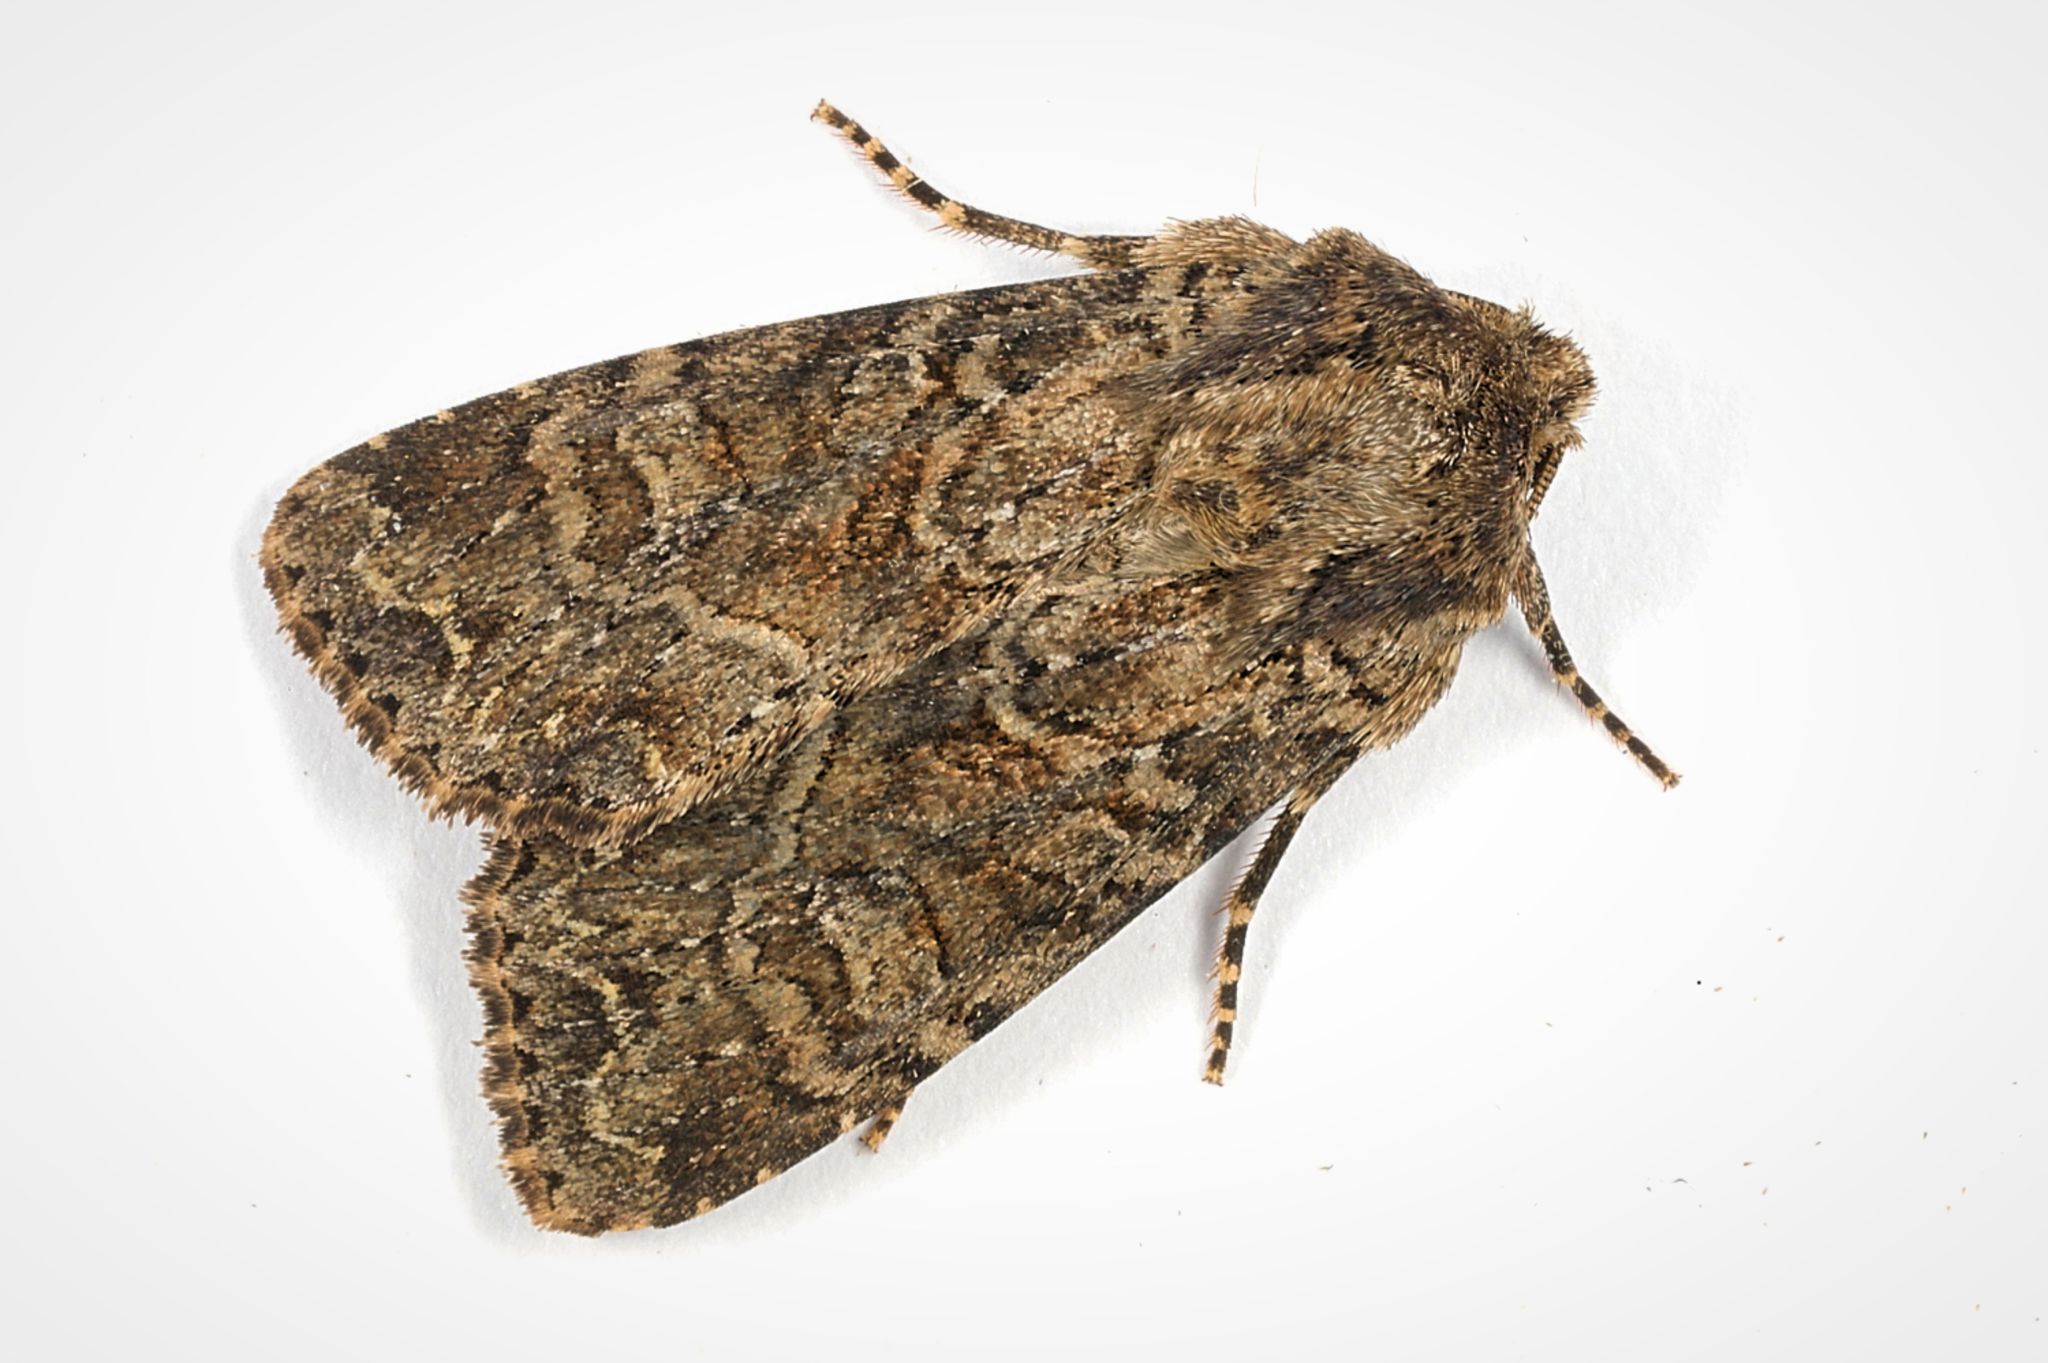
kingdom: Animalia
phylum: Arthropoda
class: Insecta
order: Lepidoptera
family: Noctuidae
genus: Anarta
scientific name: Anarta trifolii
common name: Clover cutworm moth
